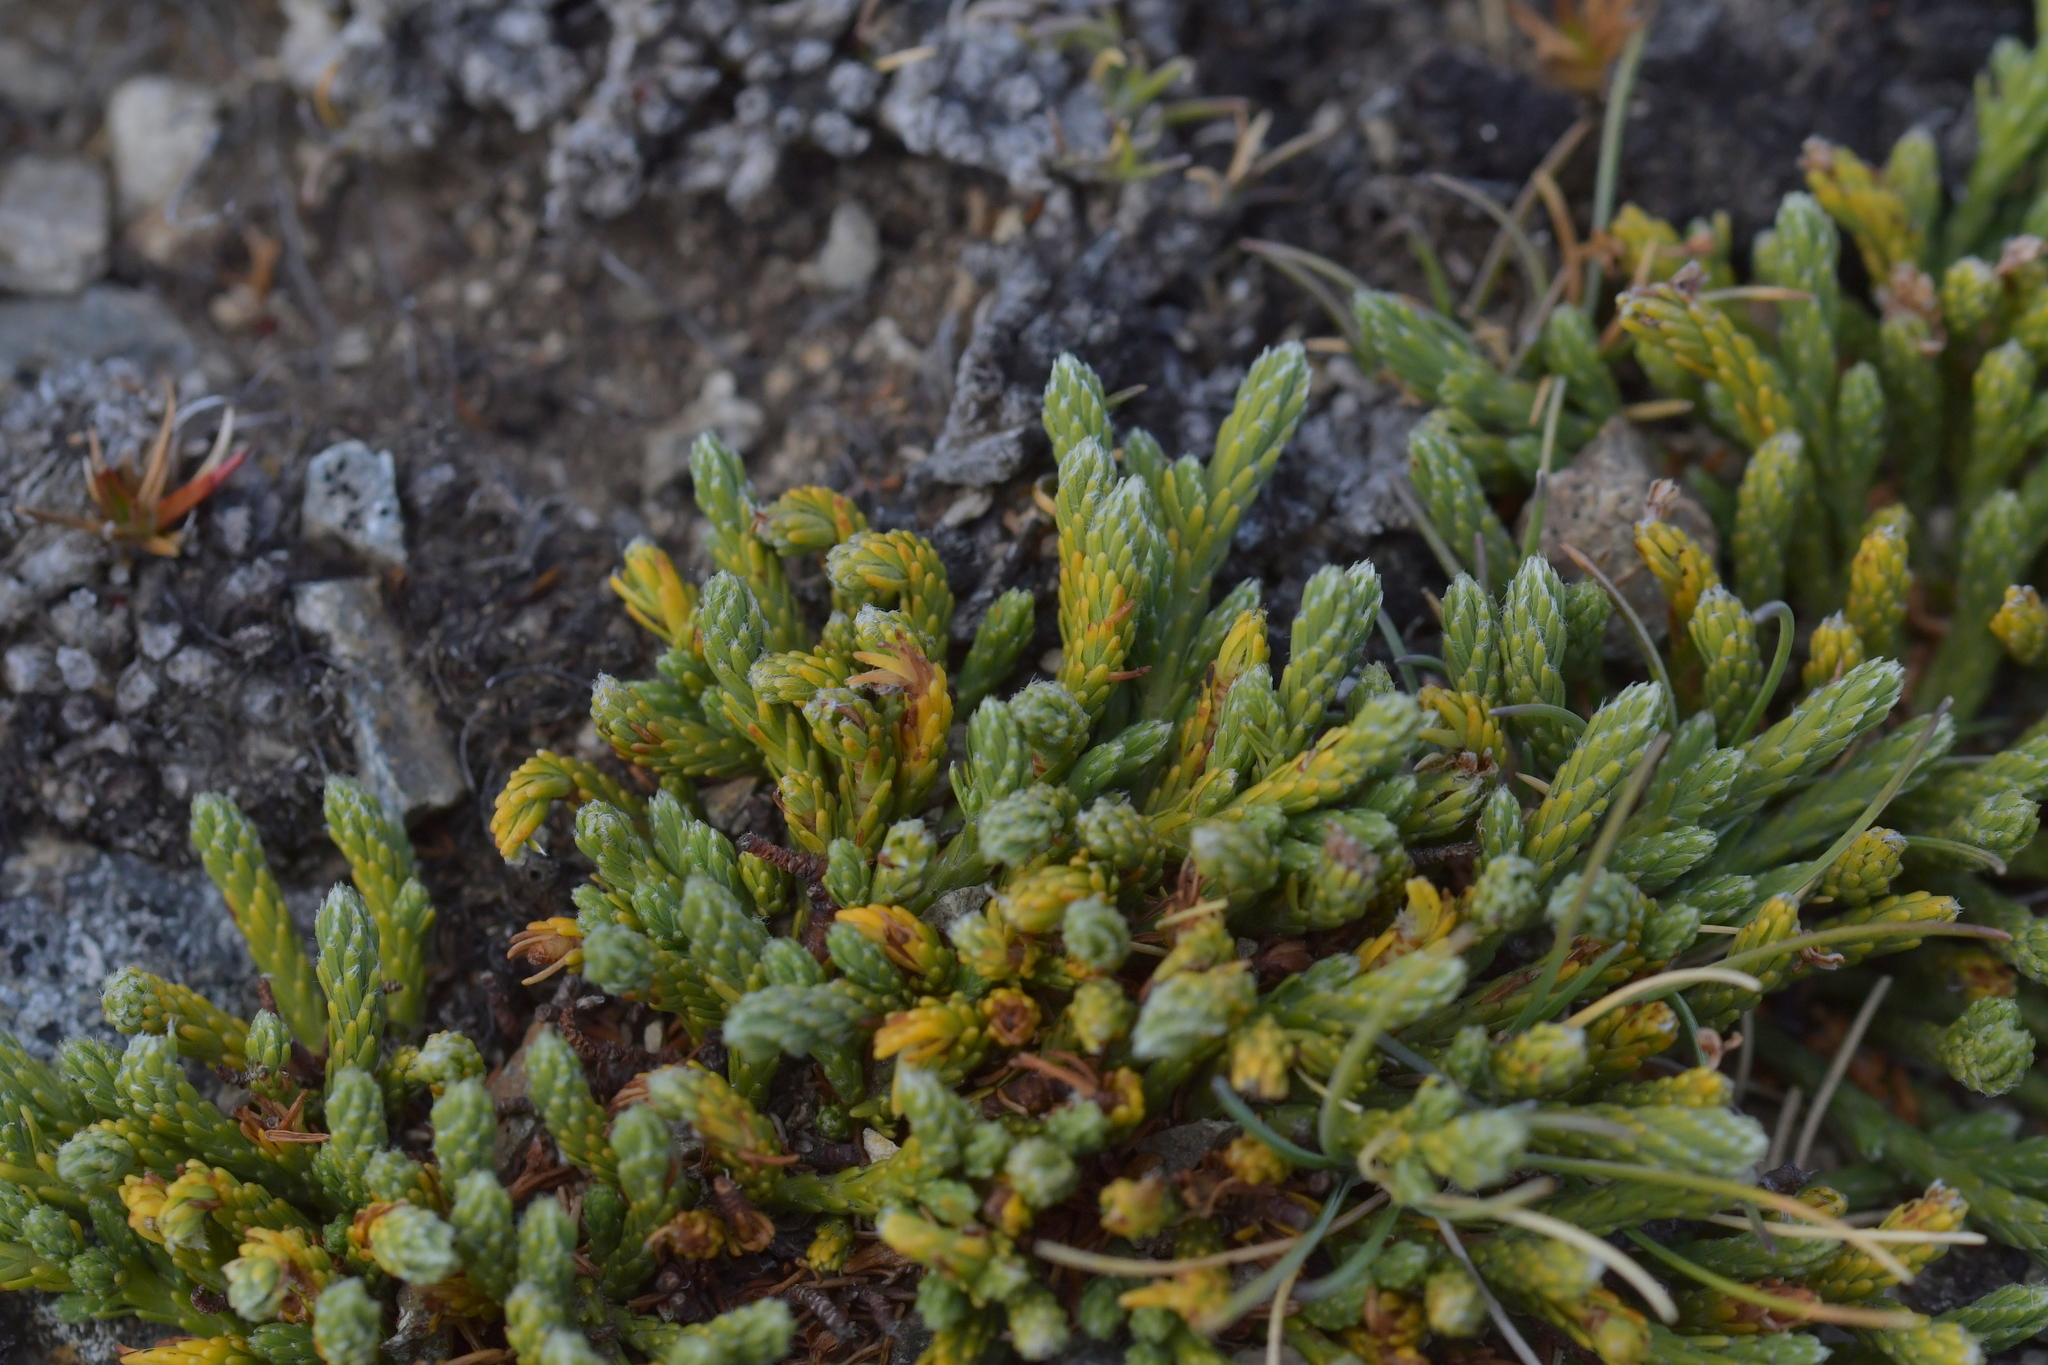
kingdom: Plantae
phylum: Tracheophyta
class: Magnoliopsida
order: Malvales
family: Thymelaeaceae
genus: Kelleria
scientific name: Kelleria dieffenbachii
